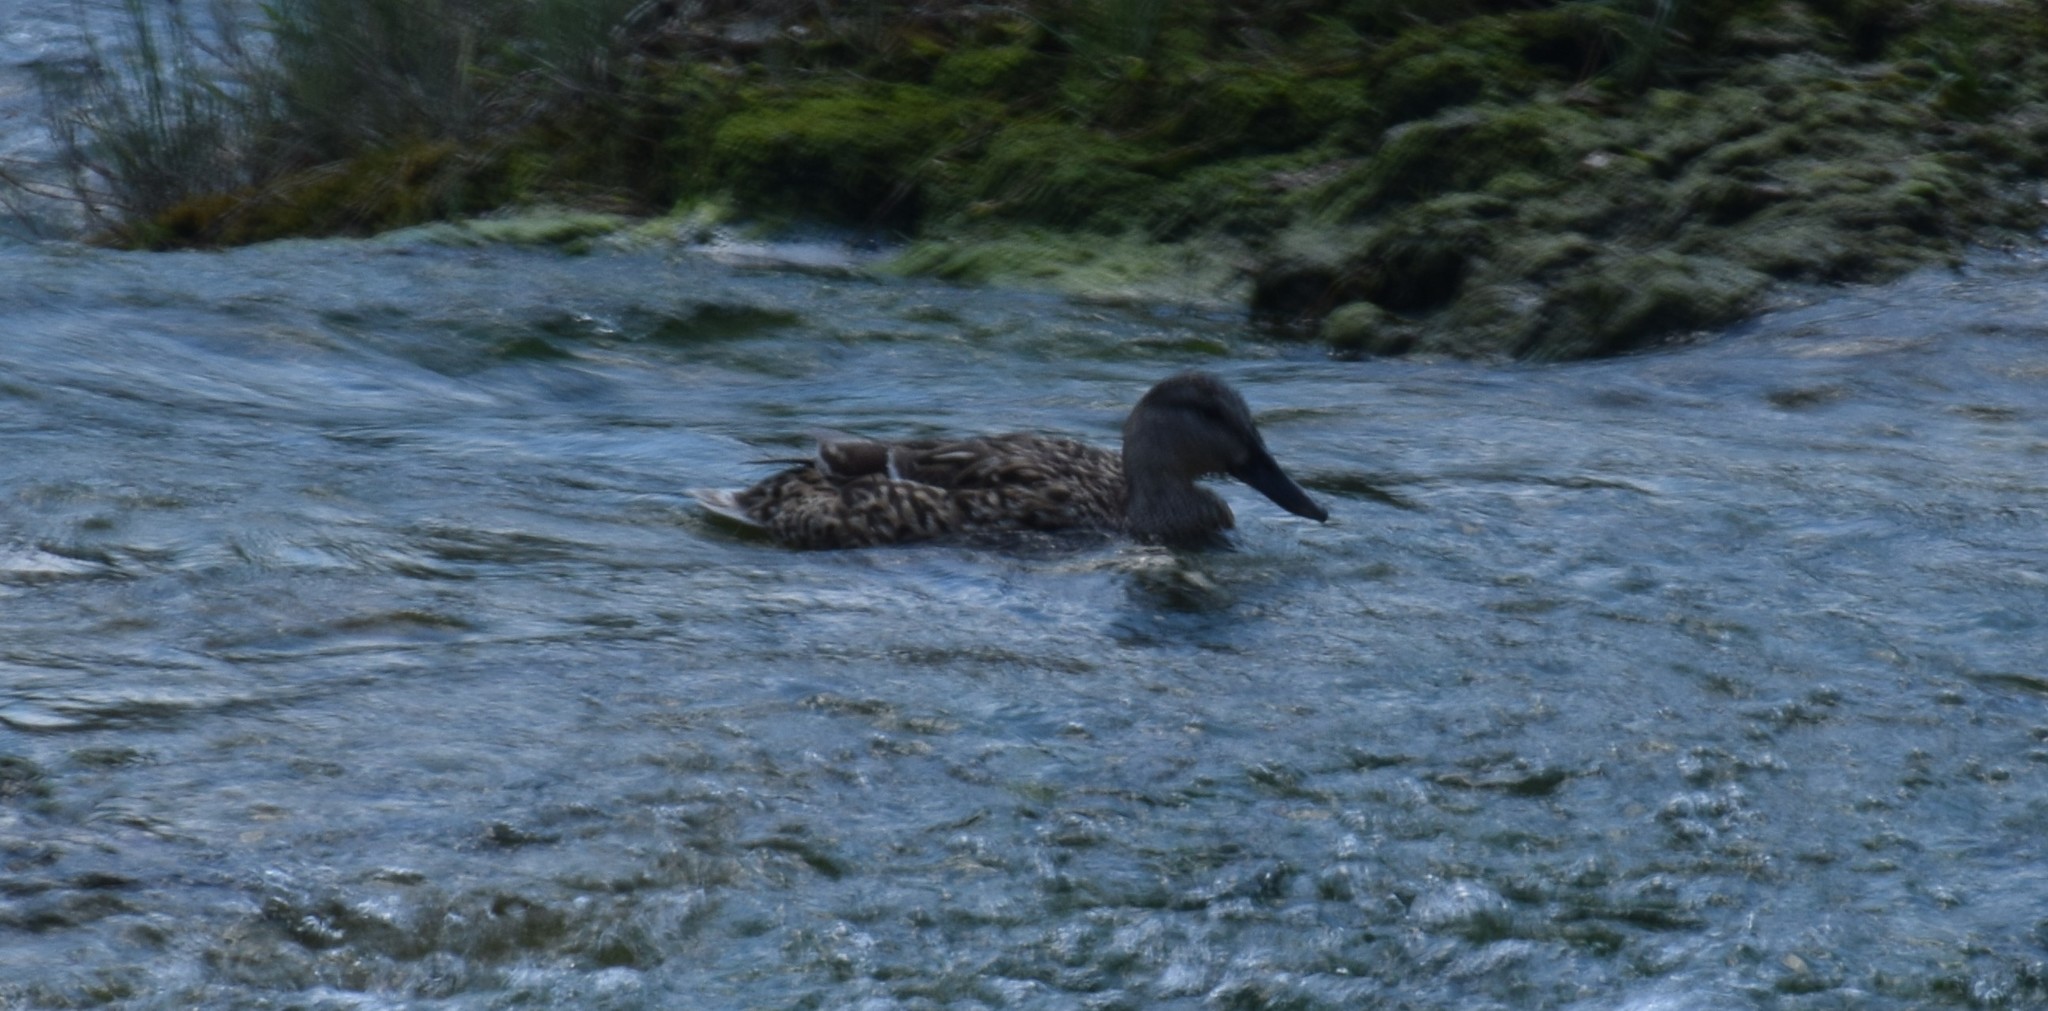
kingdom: Animalia
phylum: Chordata
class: Aves
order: Anseriformes
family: Anatidae
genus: Anas
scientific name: Anas platyrhynchos
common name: Mallard
